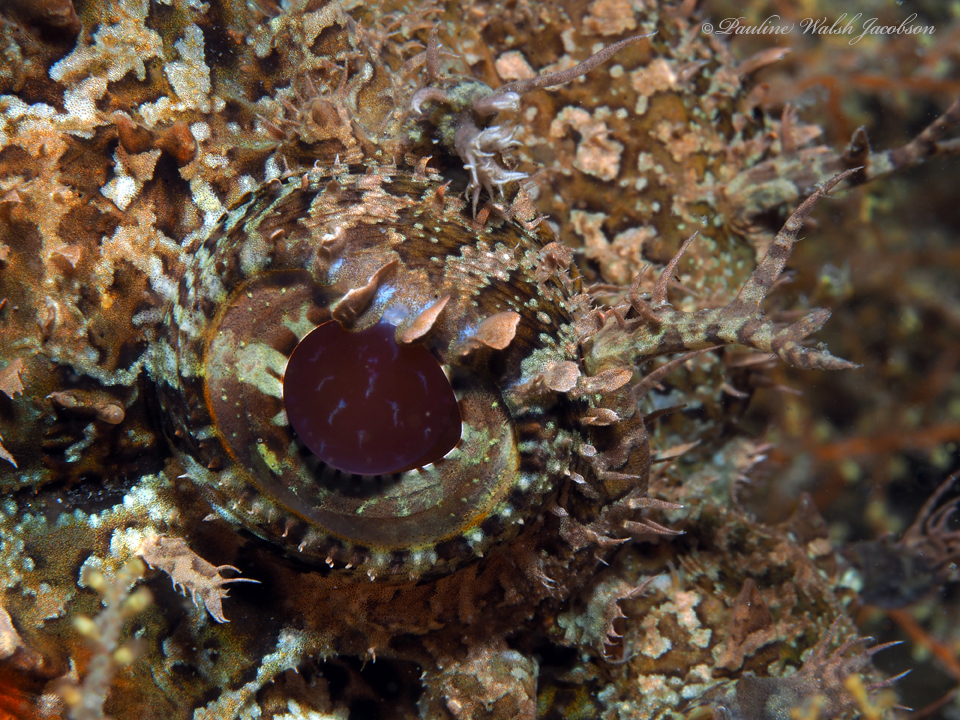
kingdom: Animalia
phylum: Chordata
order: Scorpaeniformes
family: Scorpaenidae
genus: Scorpaena
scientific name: Scorpaena plumieri
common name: Spotted scorpionfish
